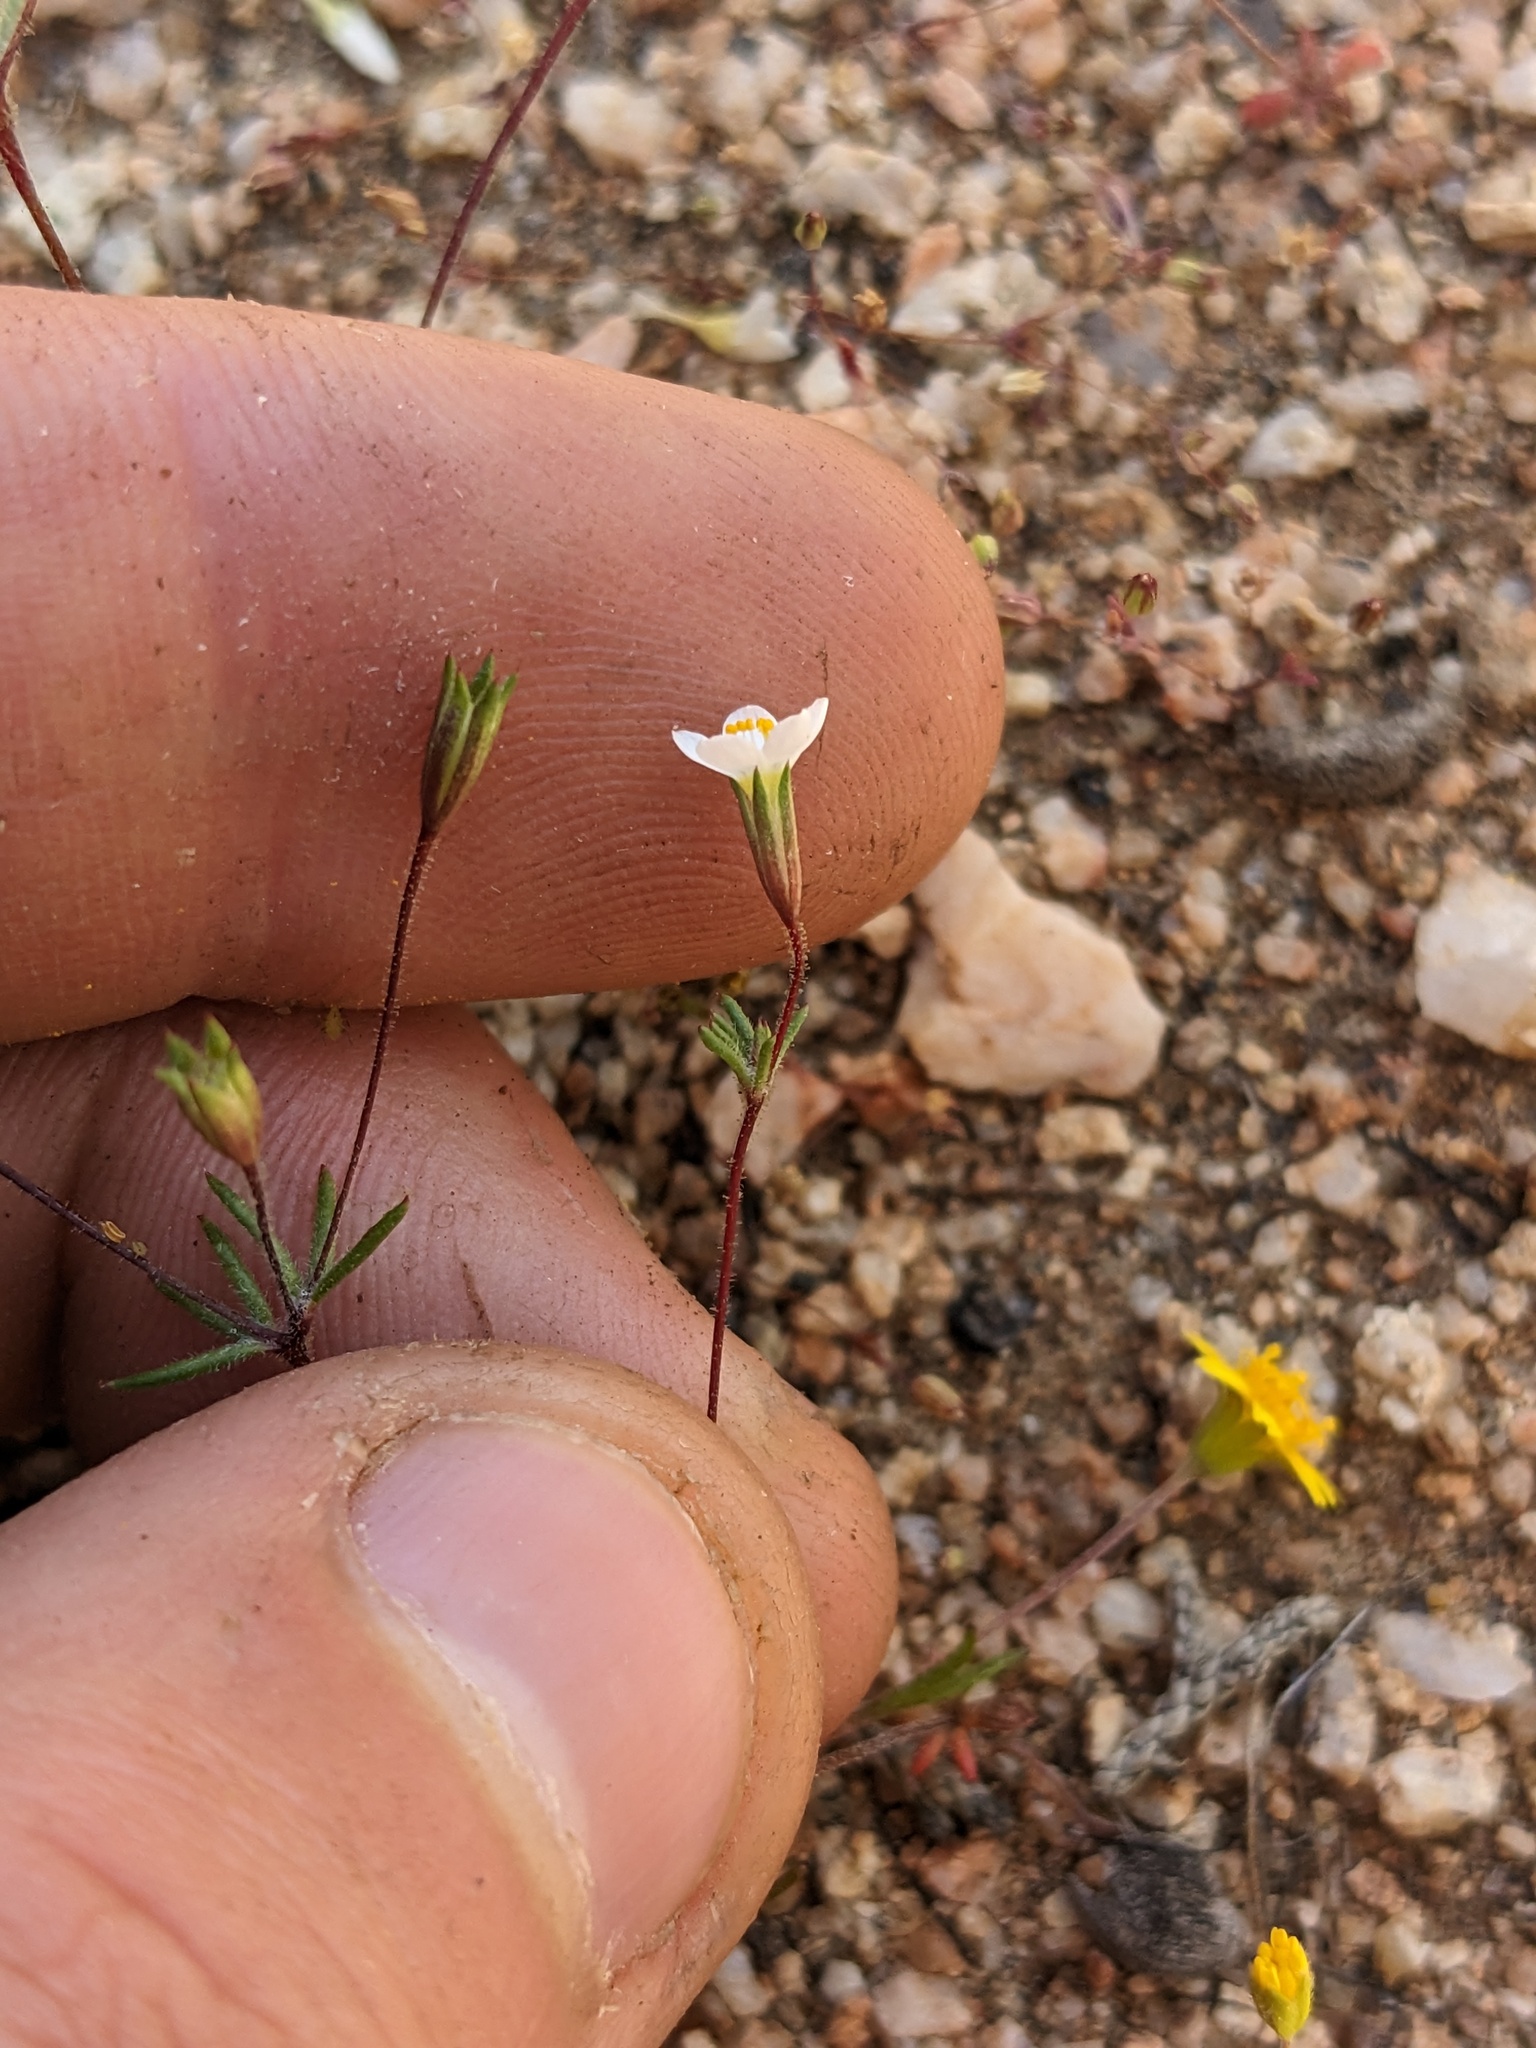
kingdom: Plantae
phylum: Tracheophyta
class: Magnoliopsida
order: Ericales
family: Polemoniaceae
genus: Leptosiphon
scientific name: Leptosiphon pygmaeus
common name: Pygmy linanthus
